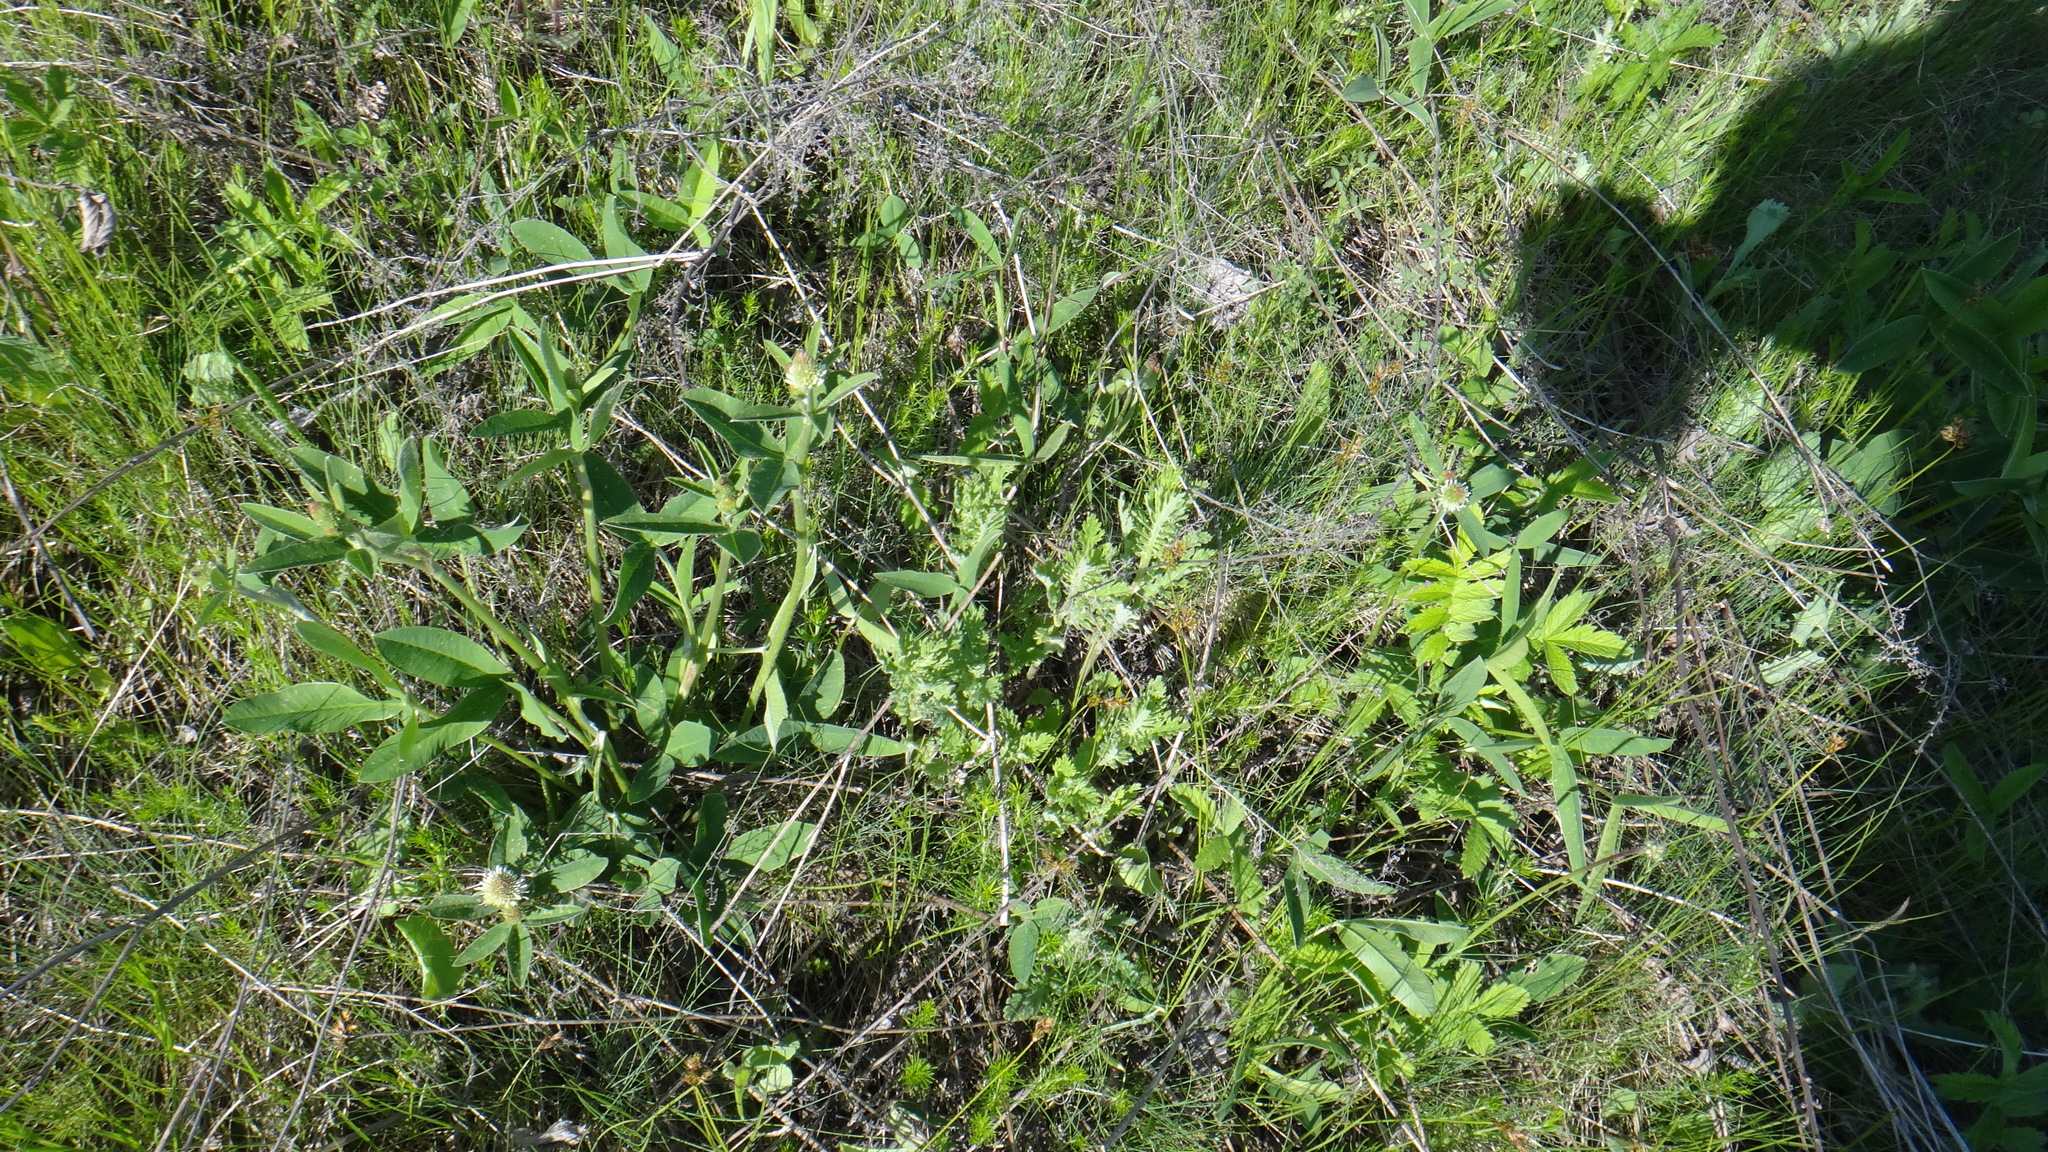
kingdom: Plantae
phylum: Tracheophyta
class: Magnoliopsida
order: Fabales
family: Fabaceae
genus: Trifolium
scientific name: Trifolium montanum
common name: Mountain clover
